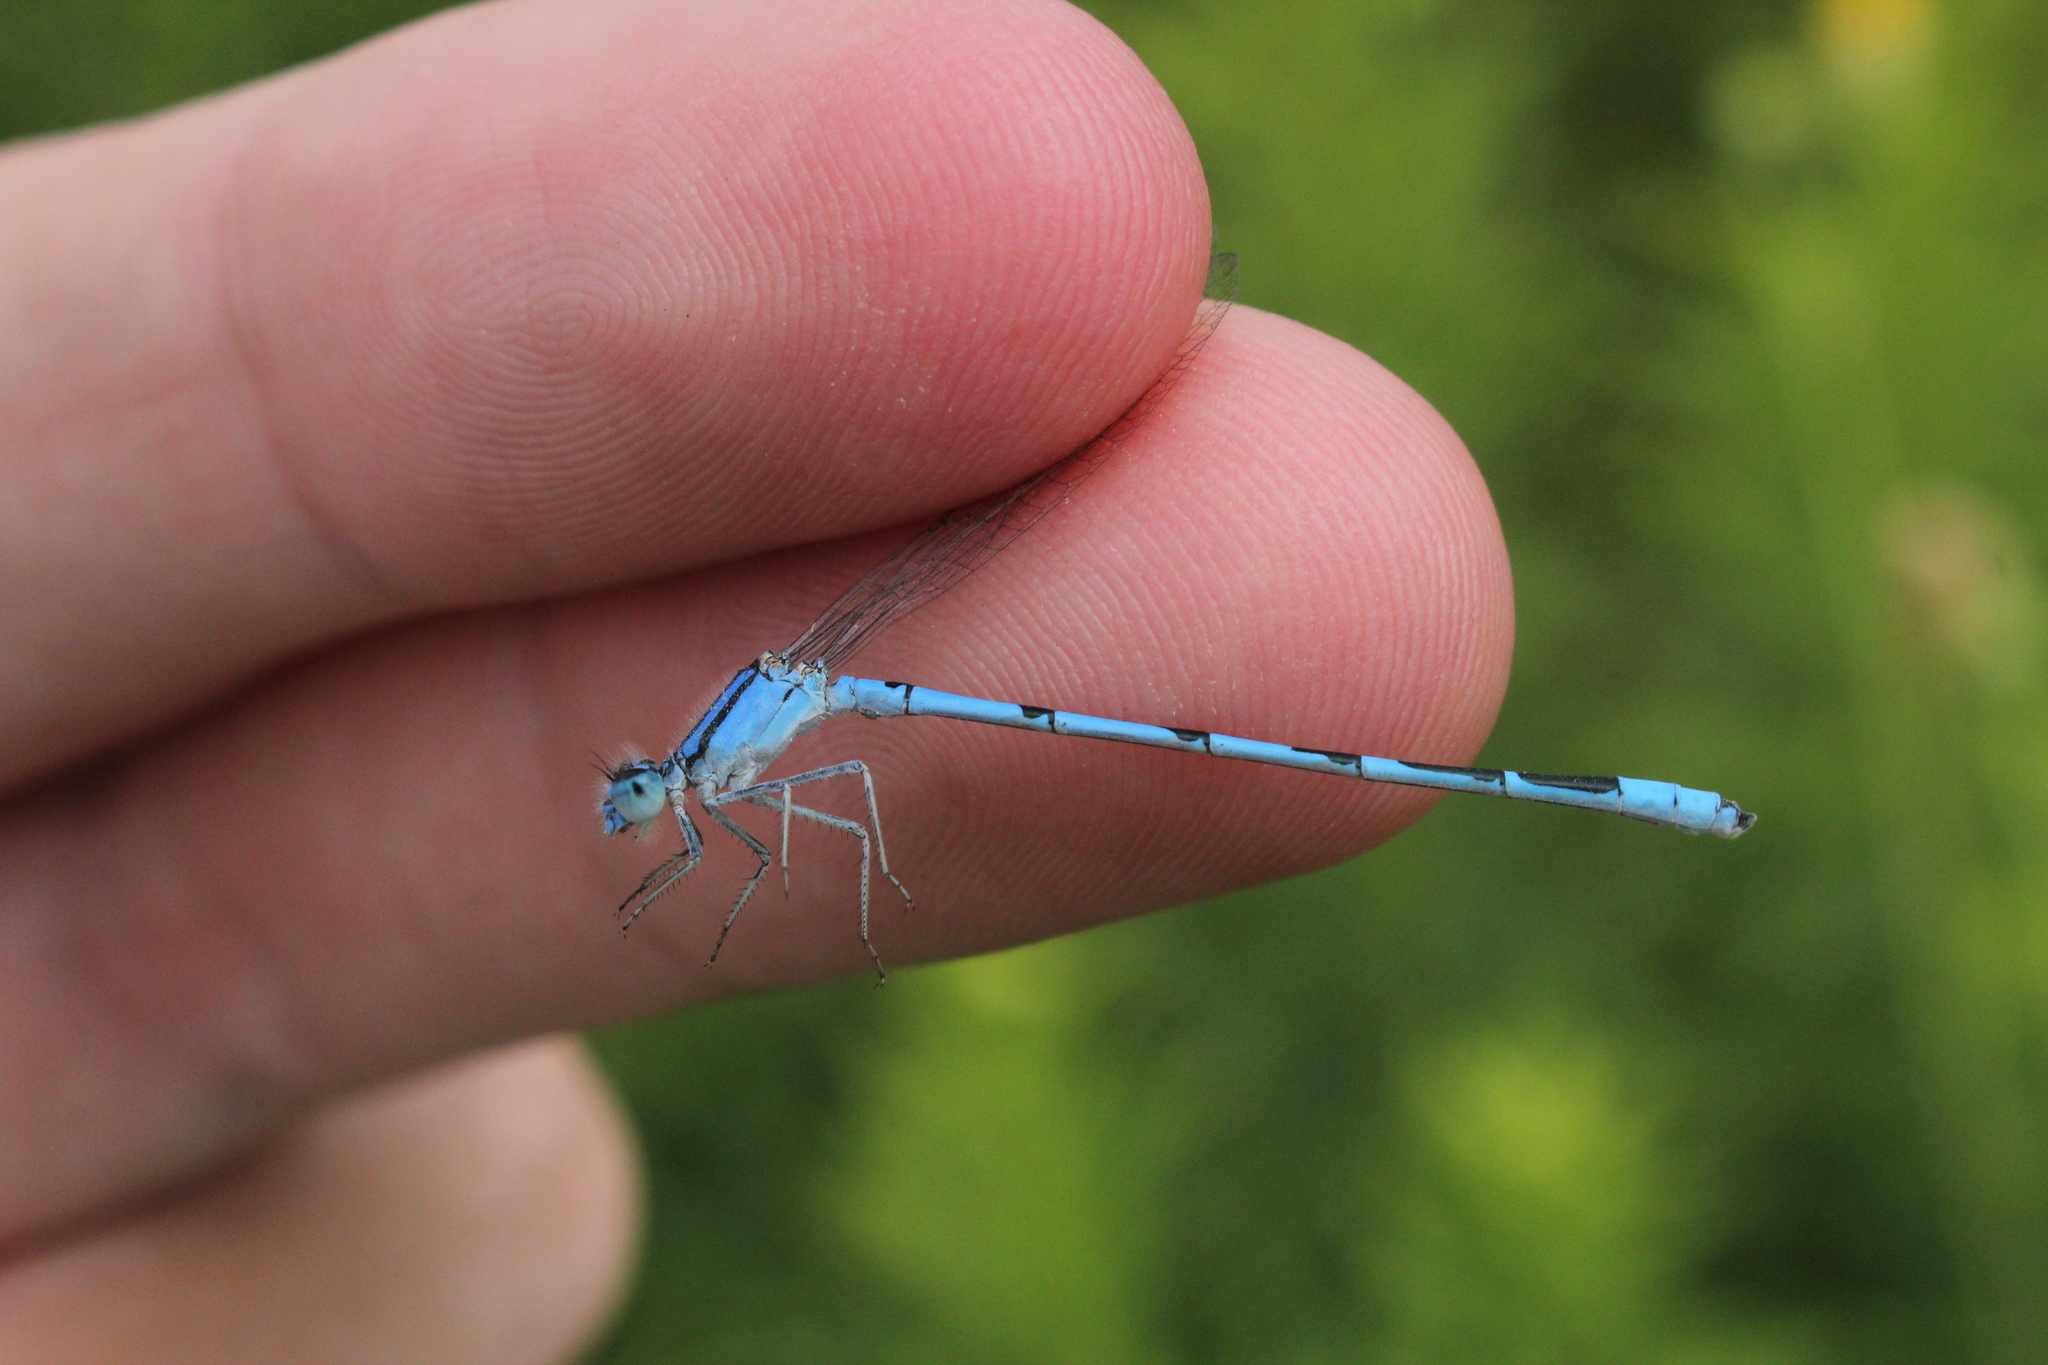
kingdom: Animalia
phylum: Arthropoda
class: Insecta
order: Odonata
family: Coenagrionidae
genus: Enallagma
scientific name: Enallagma civile
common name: Damselfly
